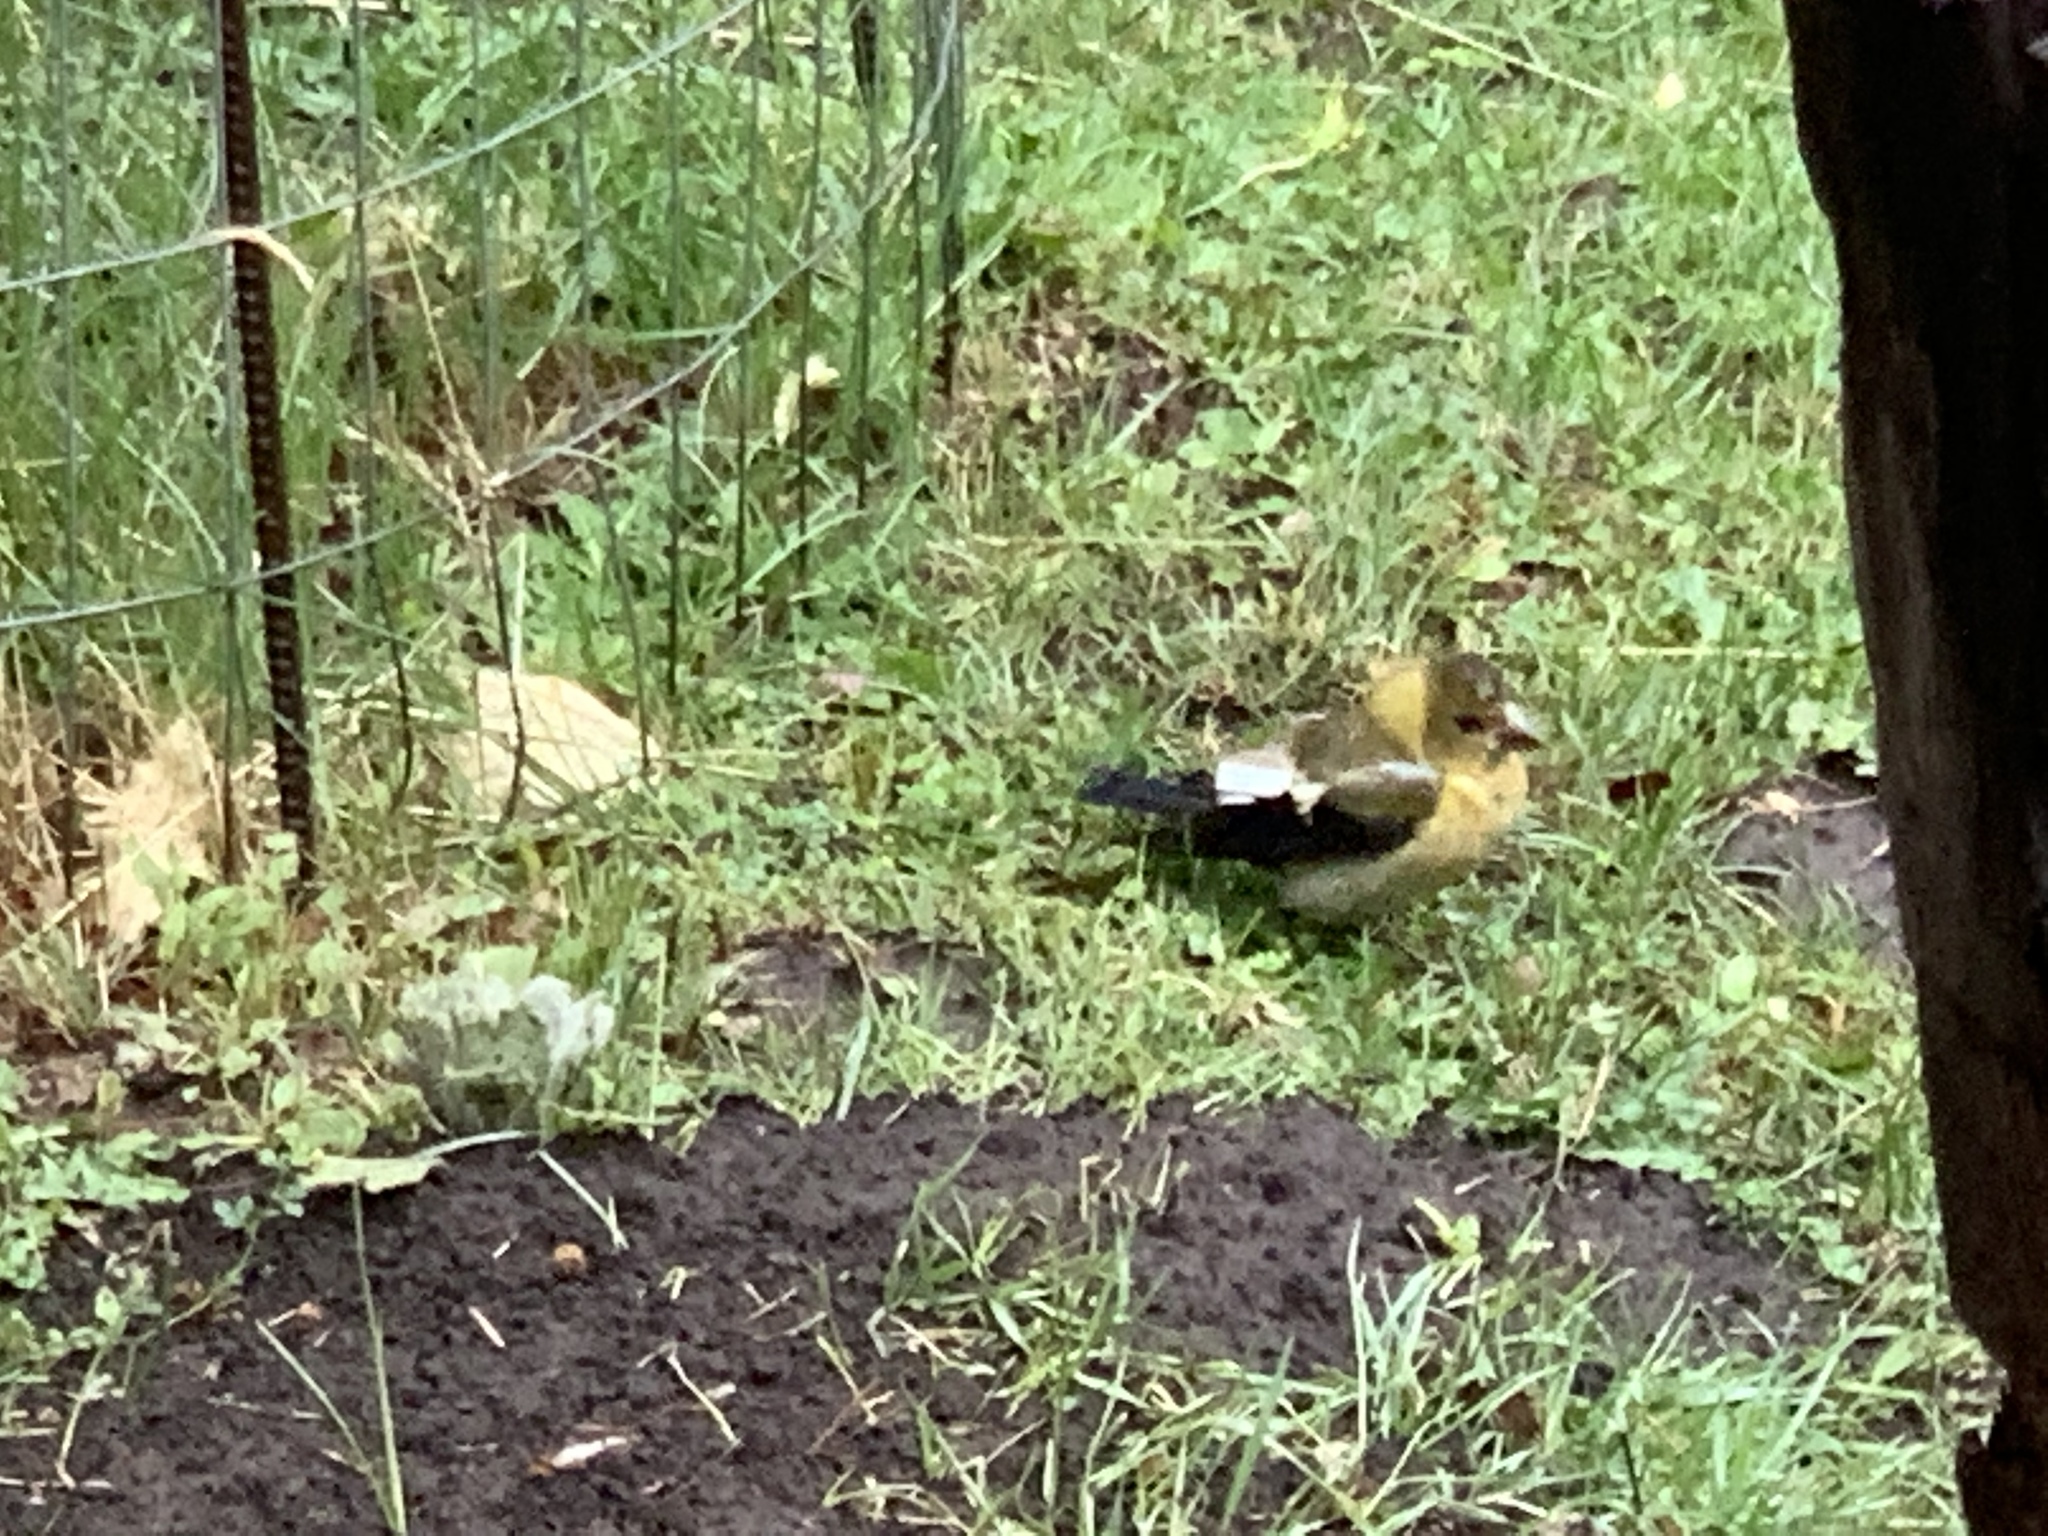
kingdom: Animalia
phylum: Chordata
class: Aves
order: Passeriformes
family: Fringillidae
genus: Hesperiphona
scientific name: Hesperiphona vespertina
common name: Evening grosbeak
